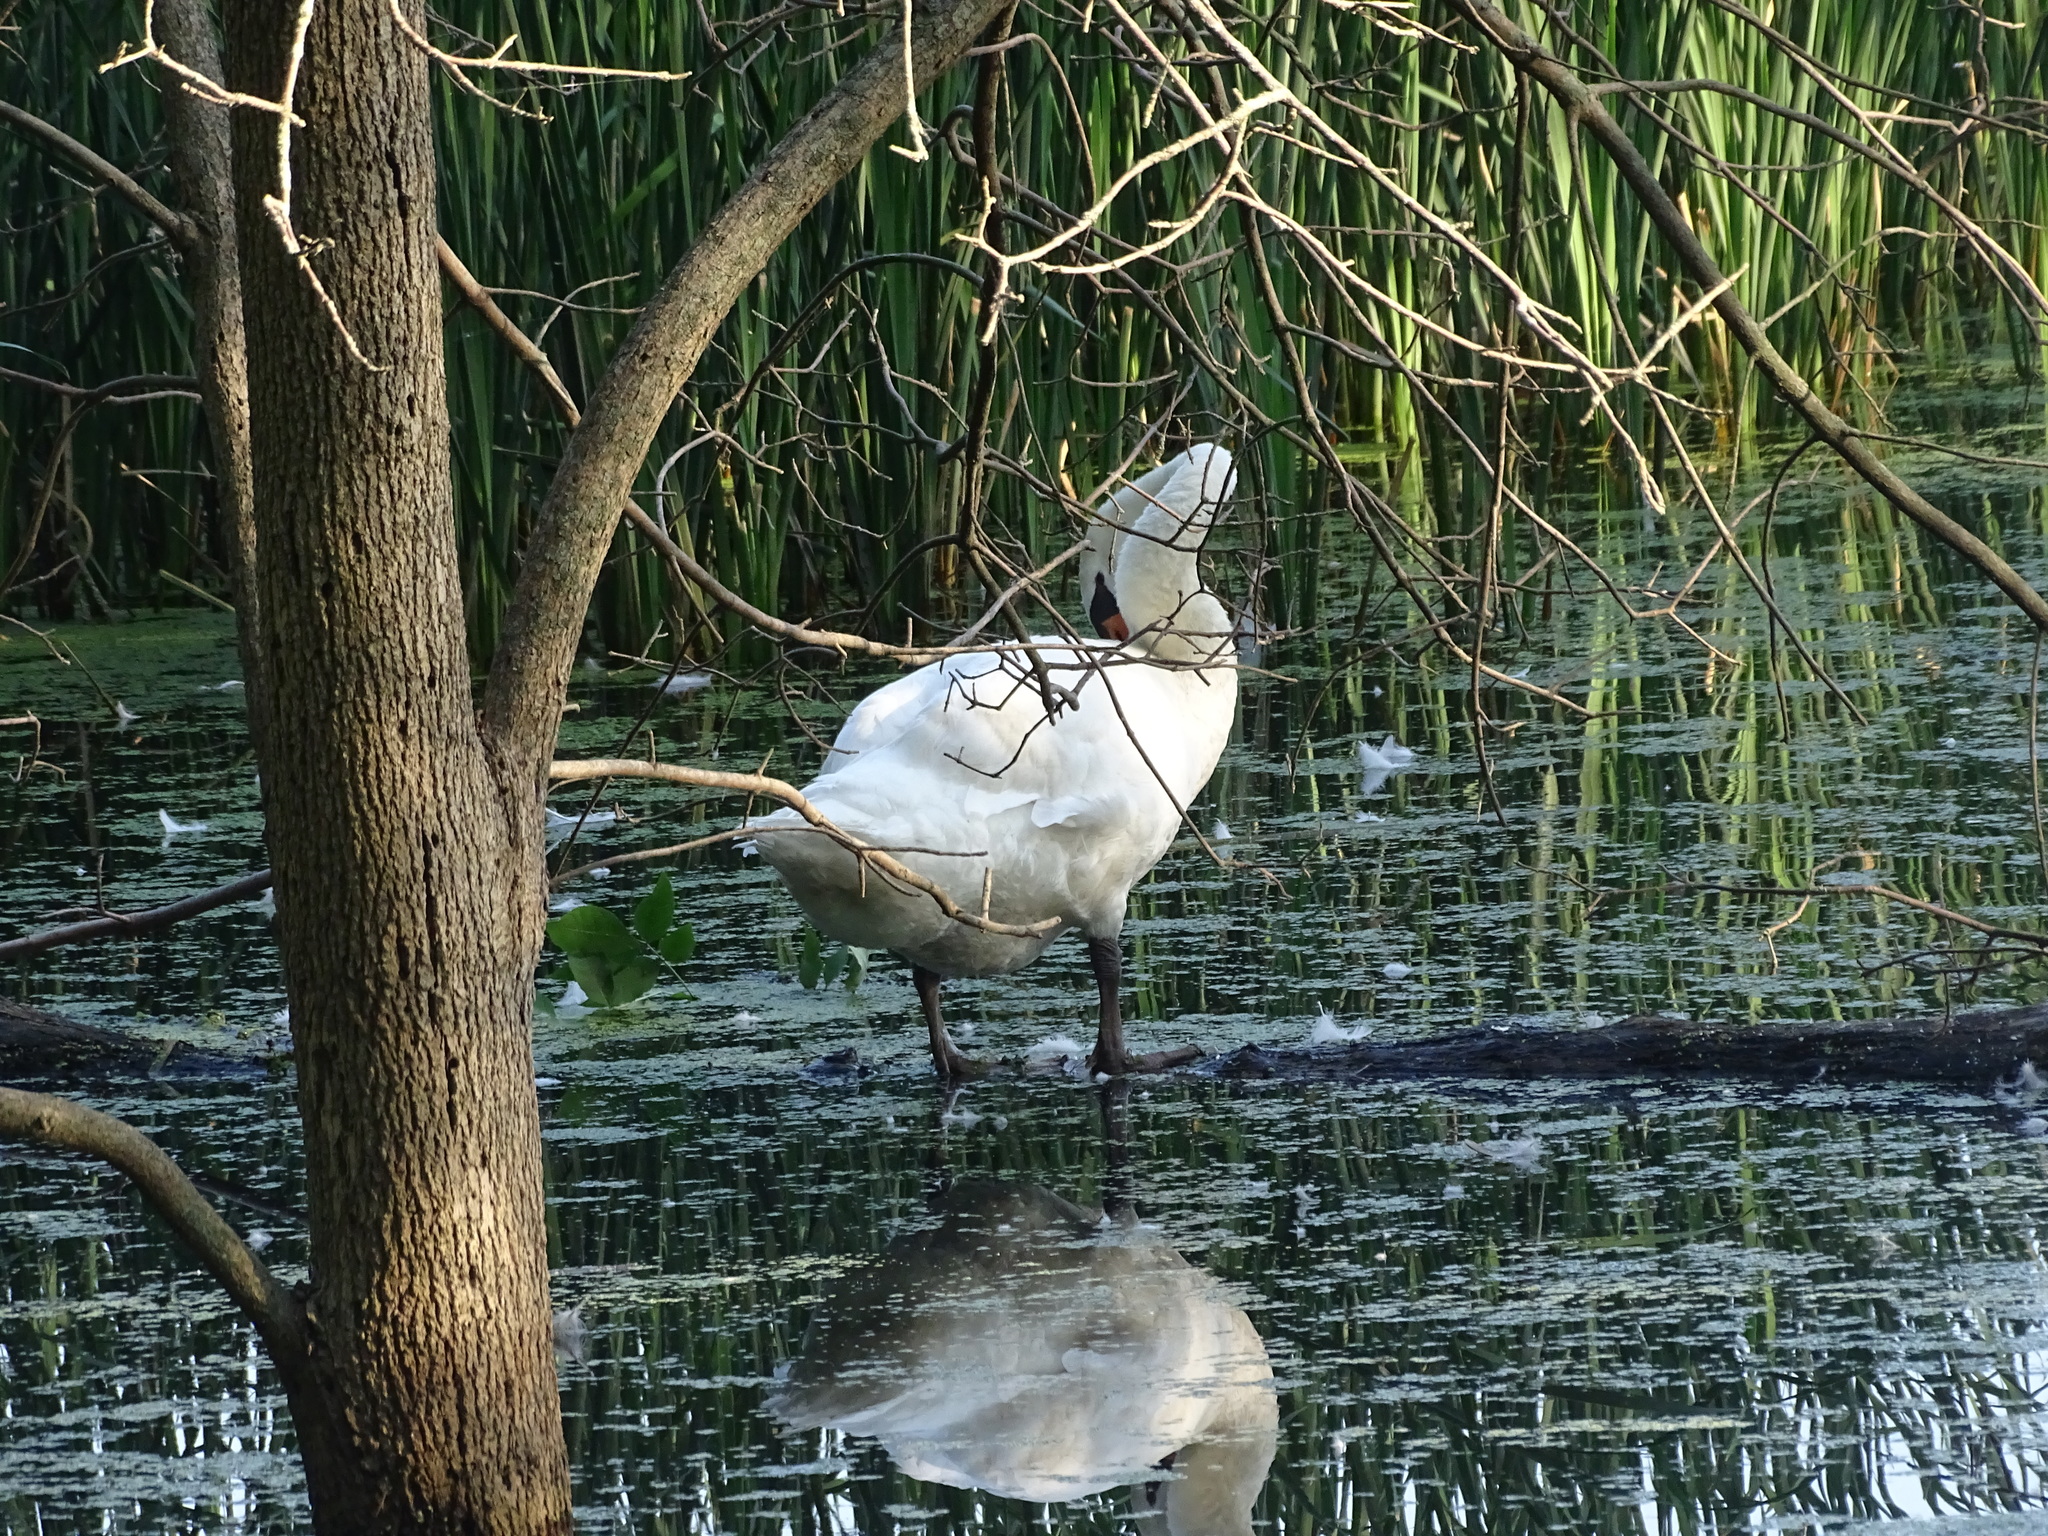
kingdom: Animalia
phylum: Chordata
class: Aves
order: Anseriformes
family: Anatidae
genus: Cygnus
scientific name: Cygnus olor
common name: Mute swan
